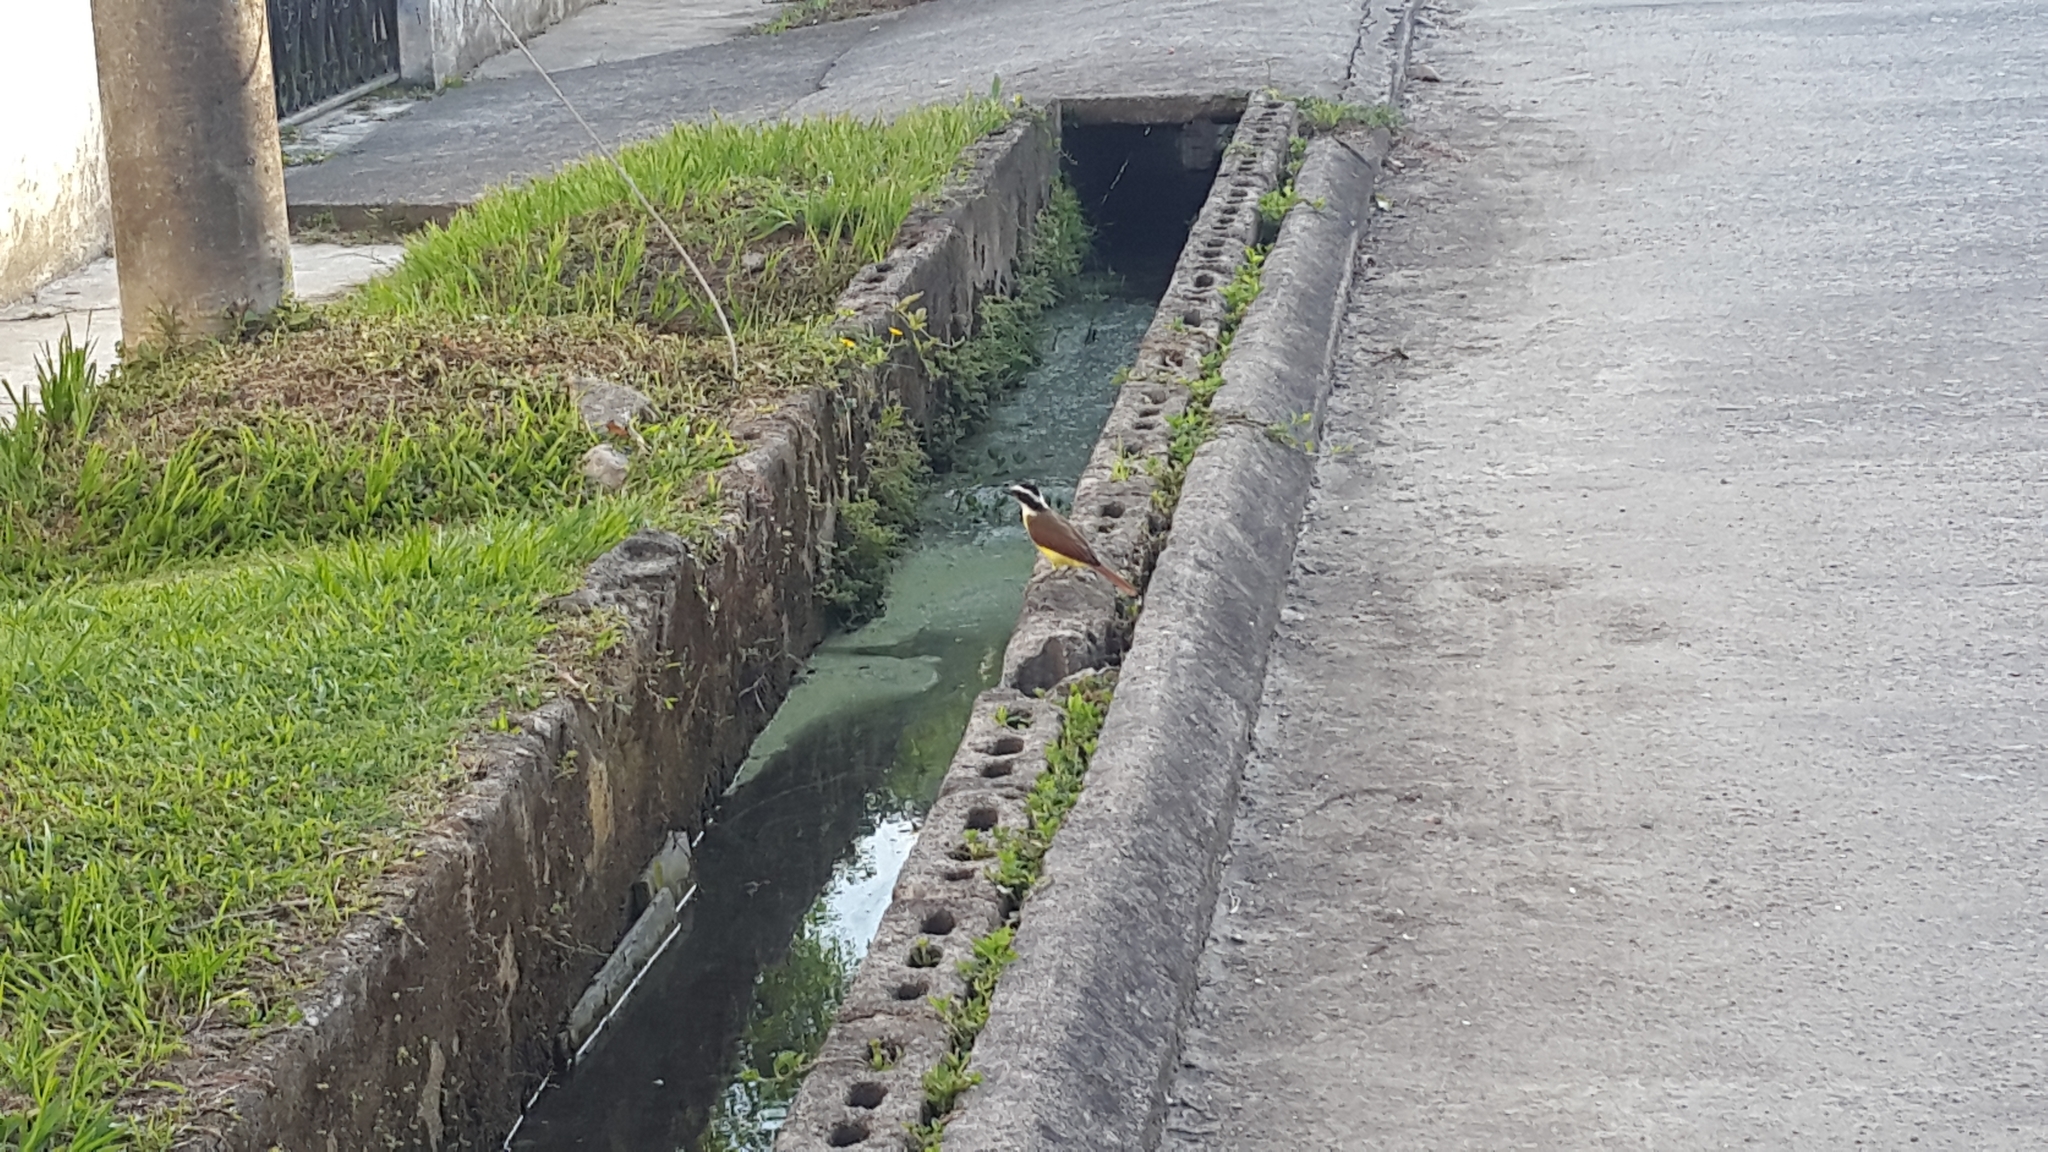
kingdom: Animalia
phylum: Chordata
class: Aves
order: Passeriformes
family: Tyrannidae
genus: Pitangus
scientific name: Pitangus sulphuratus
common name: Great kiskadee
